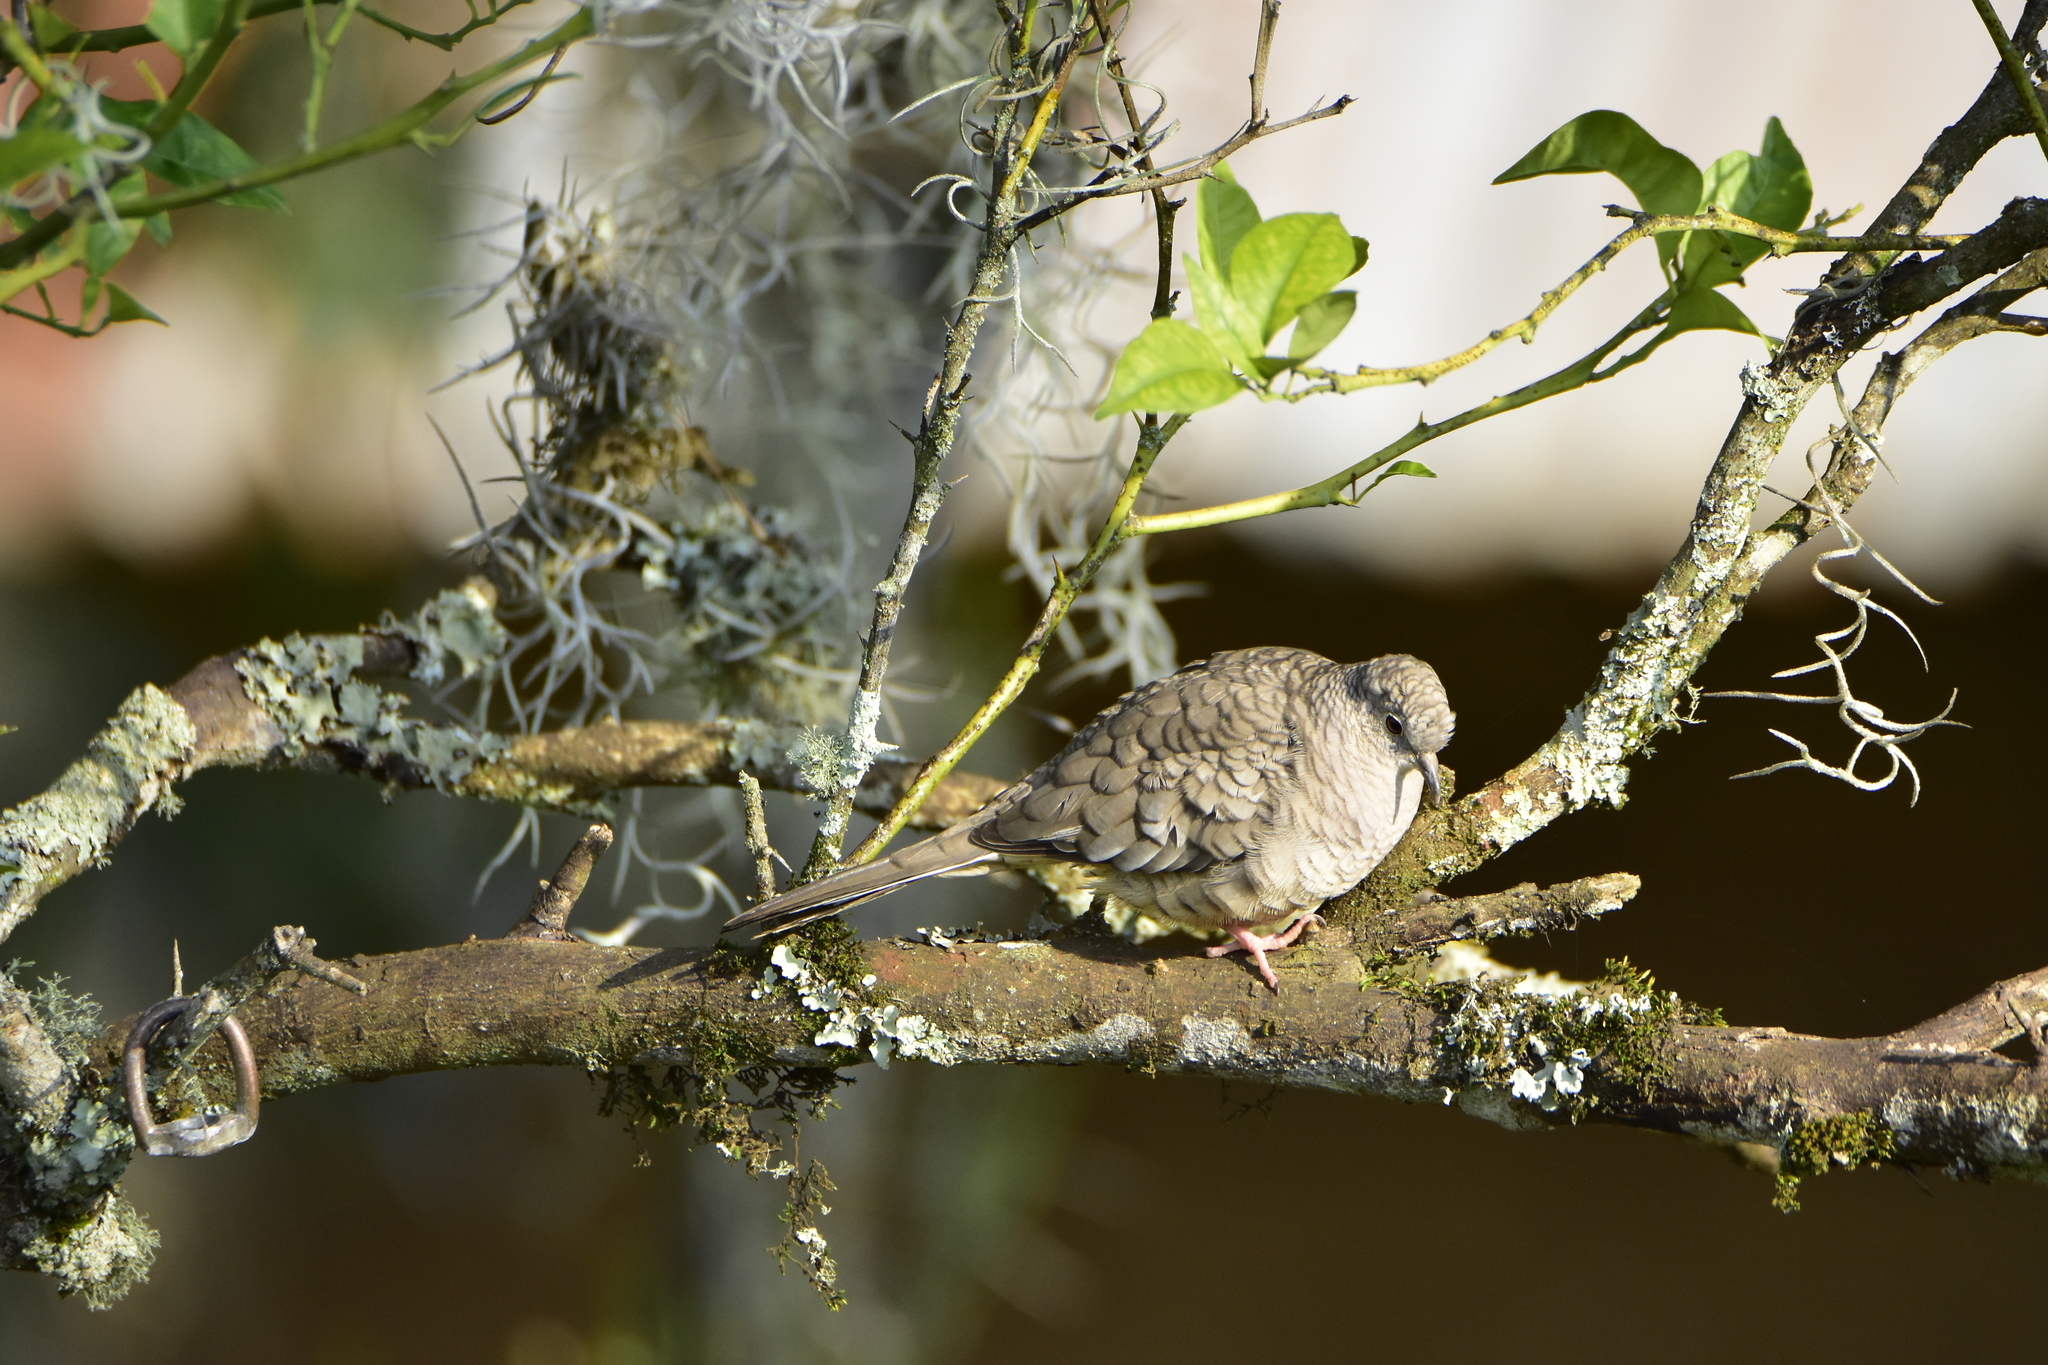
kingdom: Animalia
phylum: Chordata
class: Aves
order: Columbiformes
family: Columbidae
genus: Columbina
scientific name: Columbina inca
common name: Inca dove
